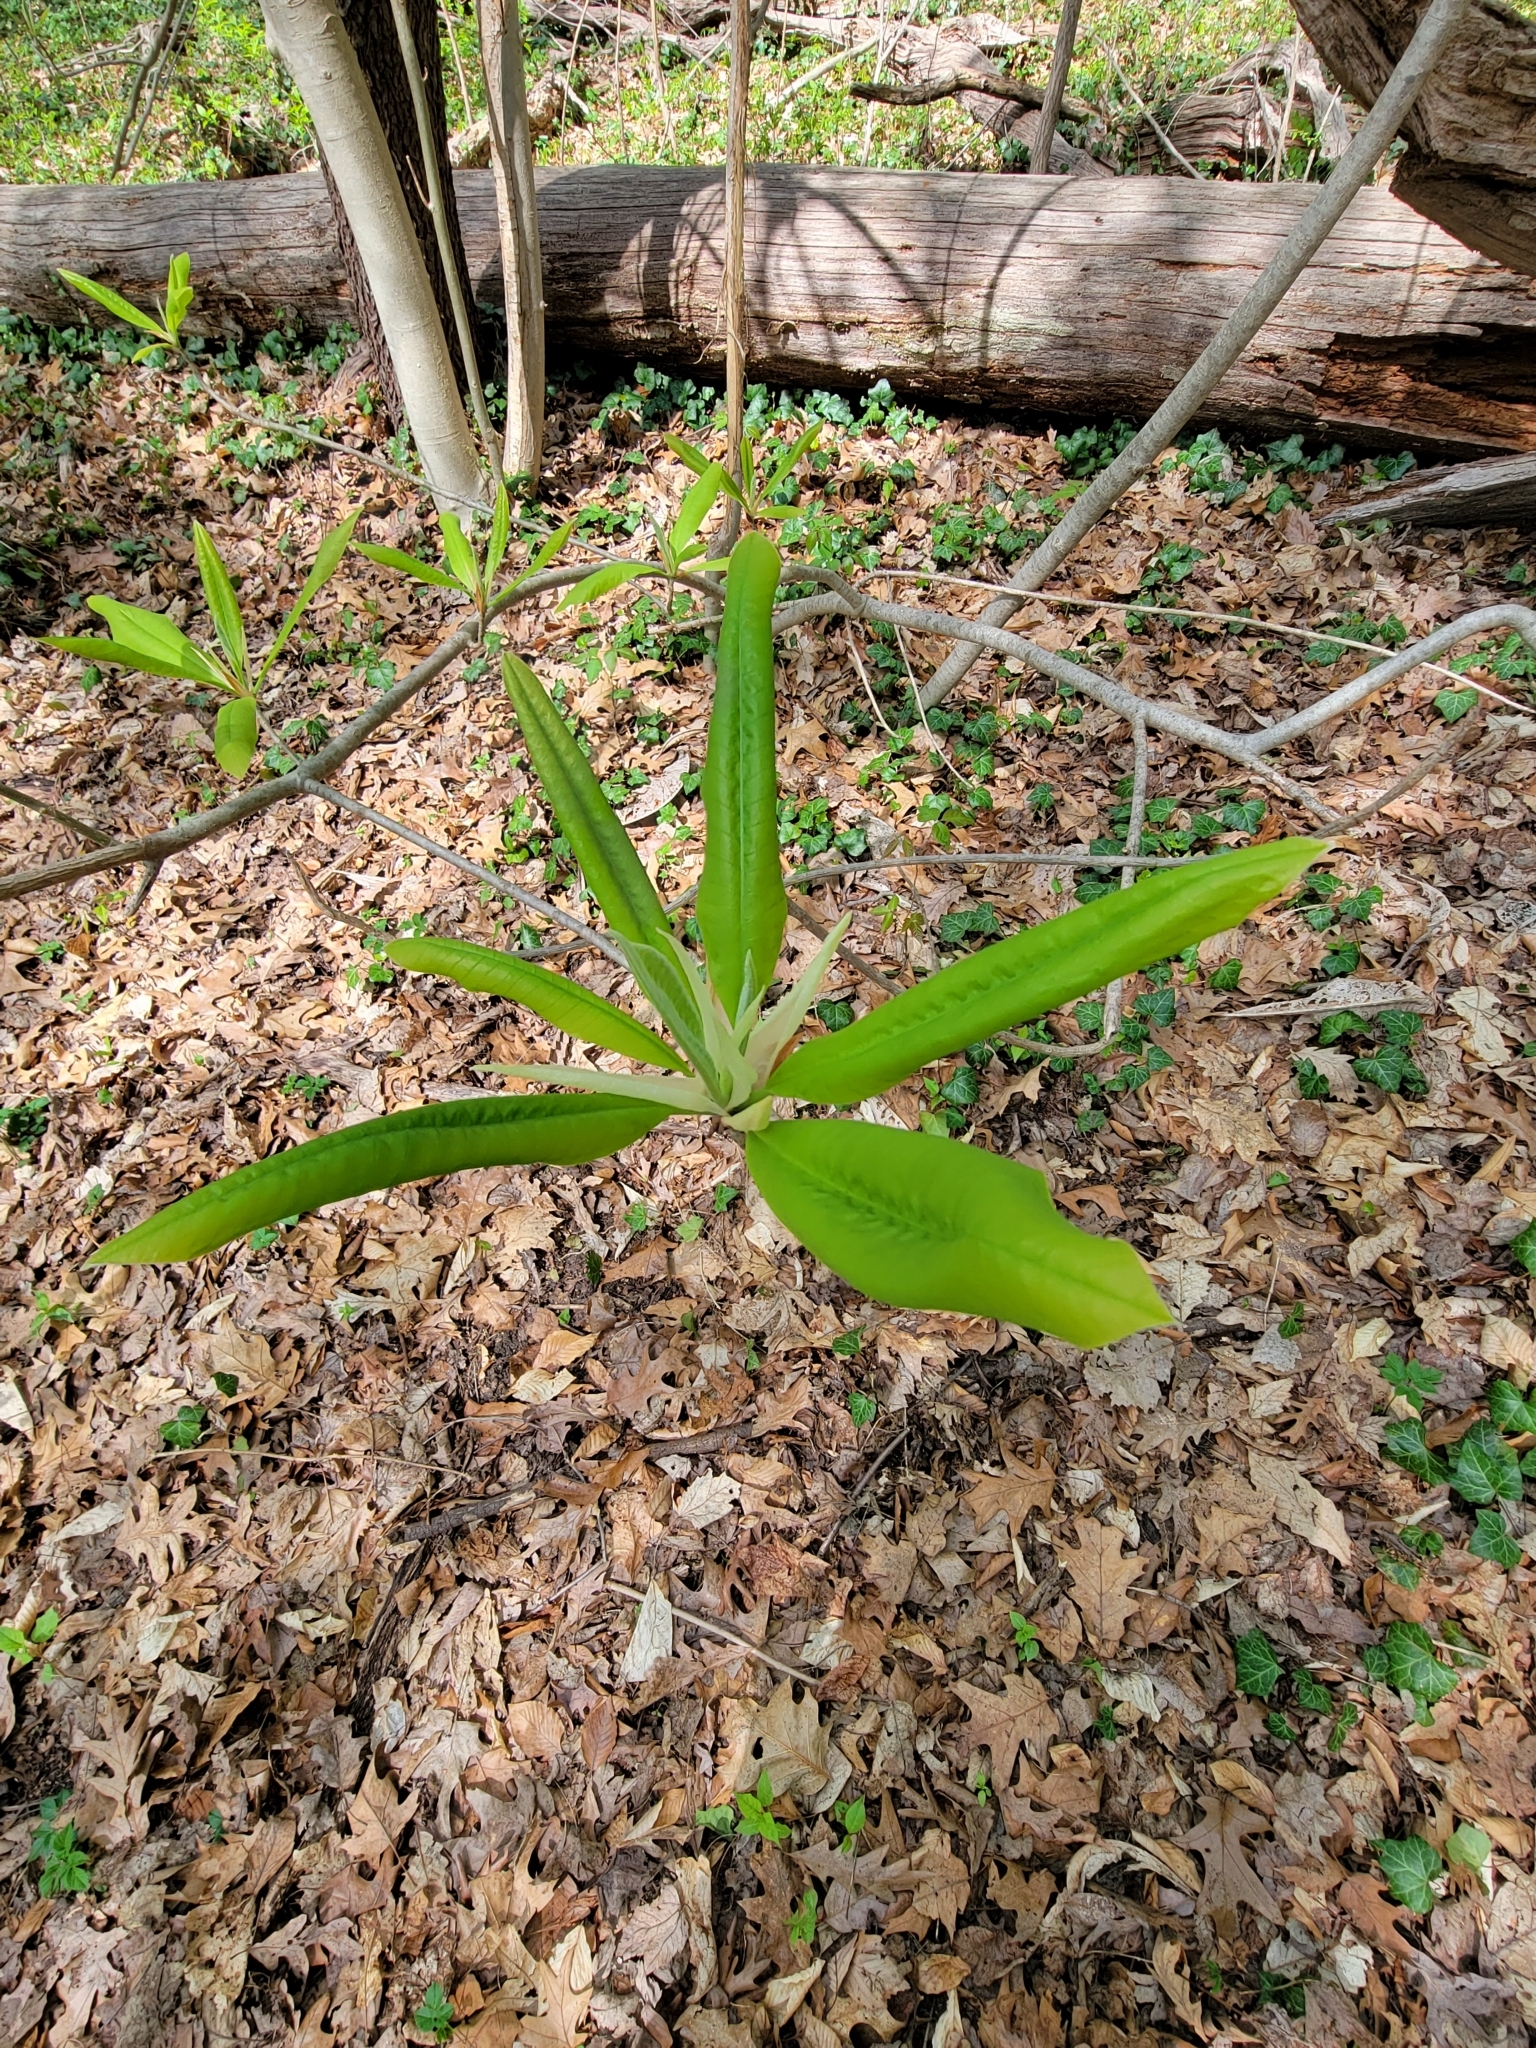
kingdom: Plantae
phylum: Tracheophyta
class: Magnoliopsida
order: Magnoliales
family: Magnoliaceae
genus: Magnolia
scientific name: Magnolia tripetala
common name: Umbrella magnolia
